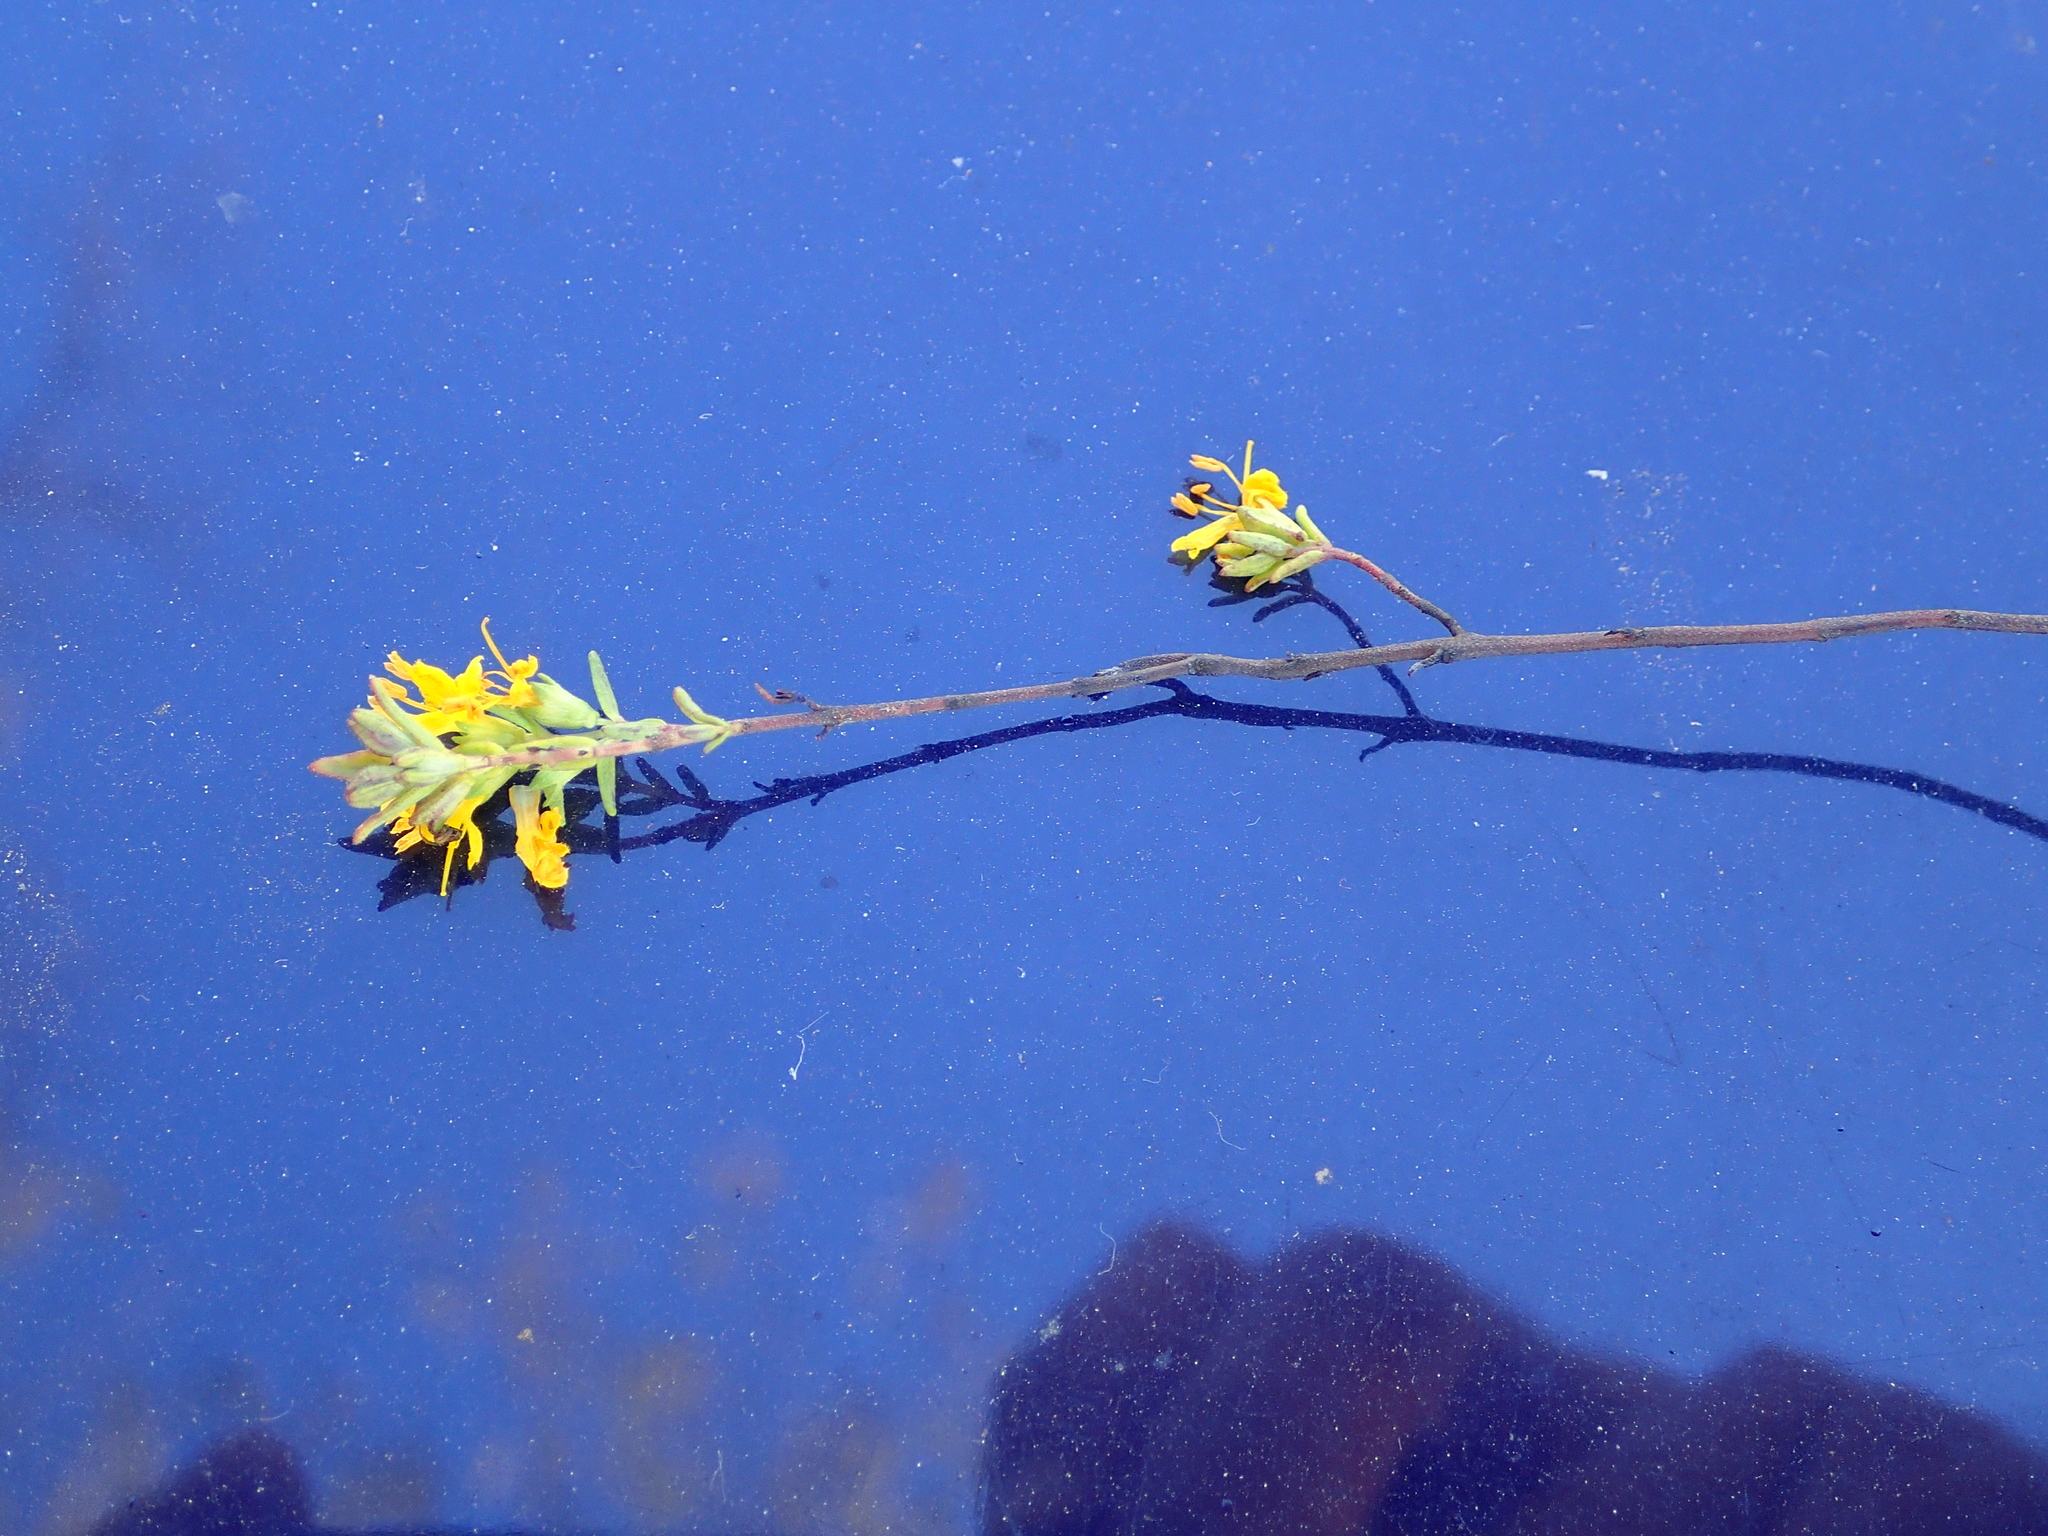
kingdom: Plantae
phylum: Tracheophyta
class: Magnoliopsida
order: Lamiales
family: Orobanchaceae
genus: Odontites
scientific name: Odontites luteus
